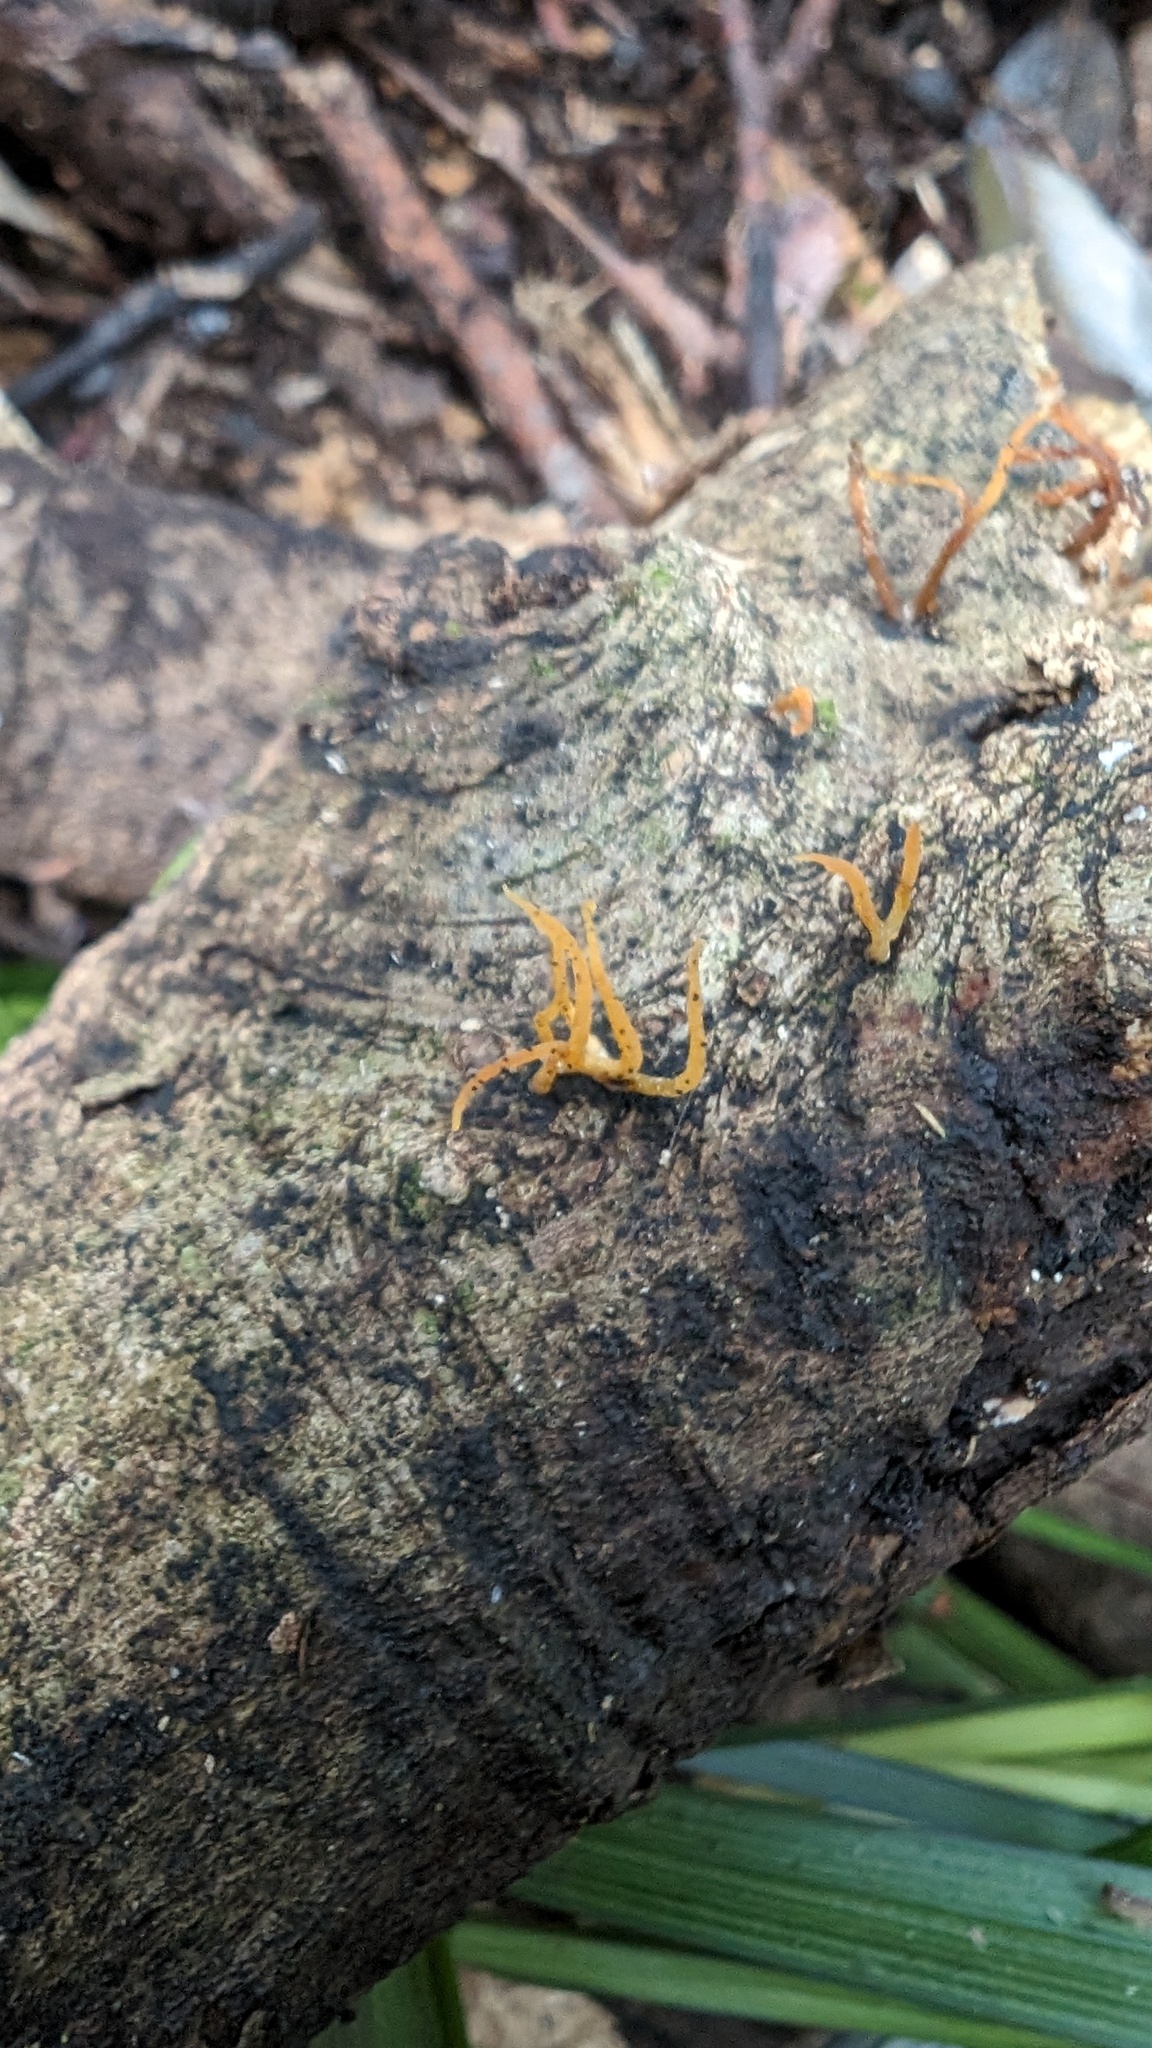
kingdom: Fungi
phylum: Basidiomycota
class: Dacrymycetes
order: Dacrymycetales
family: Dacrymycetaceae
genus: Calocera
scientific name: Calocera cornea
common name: Small stagshorn
